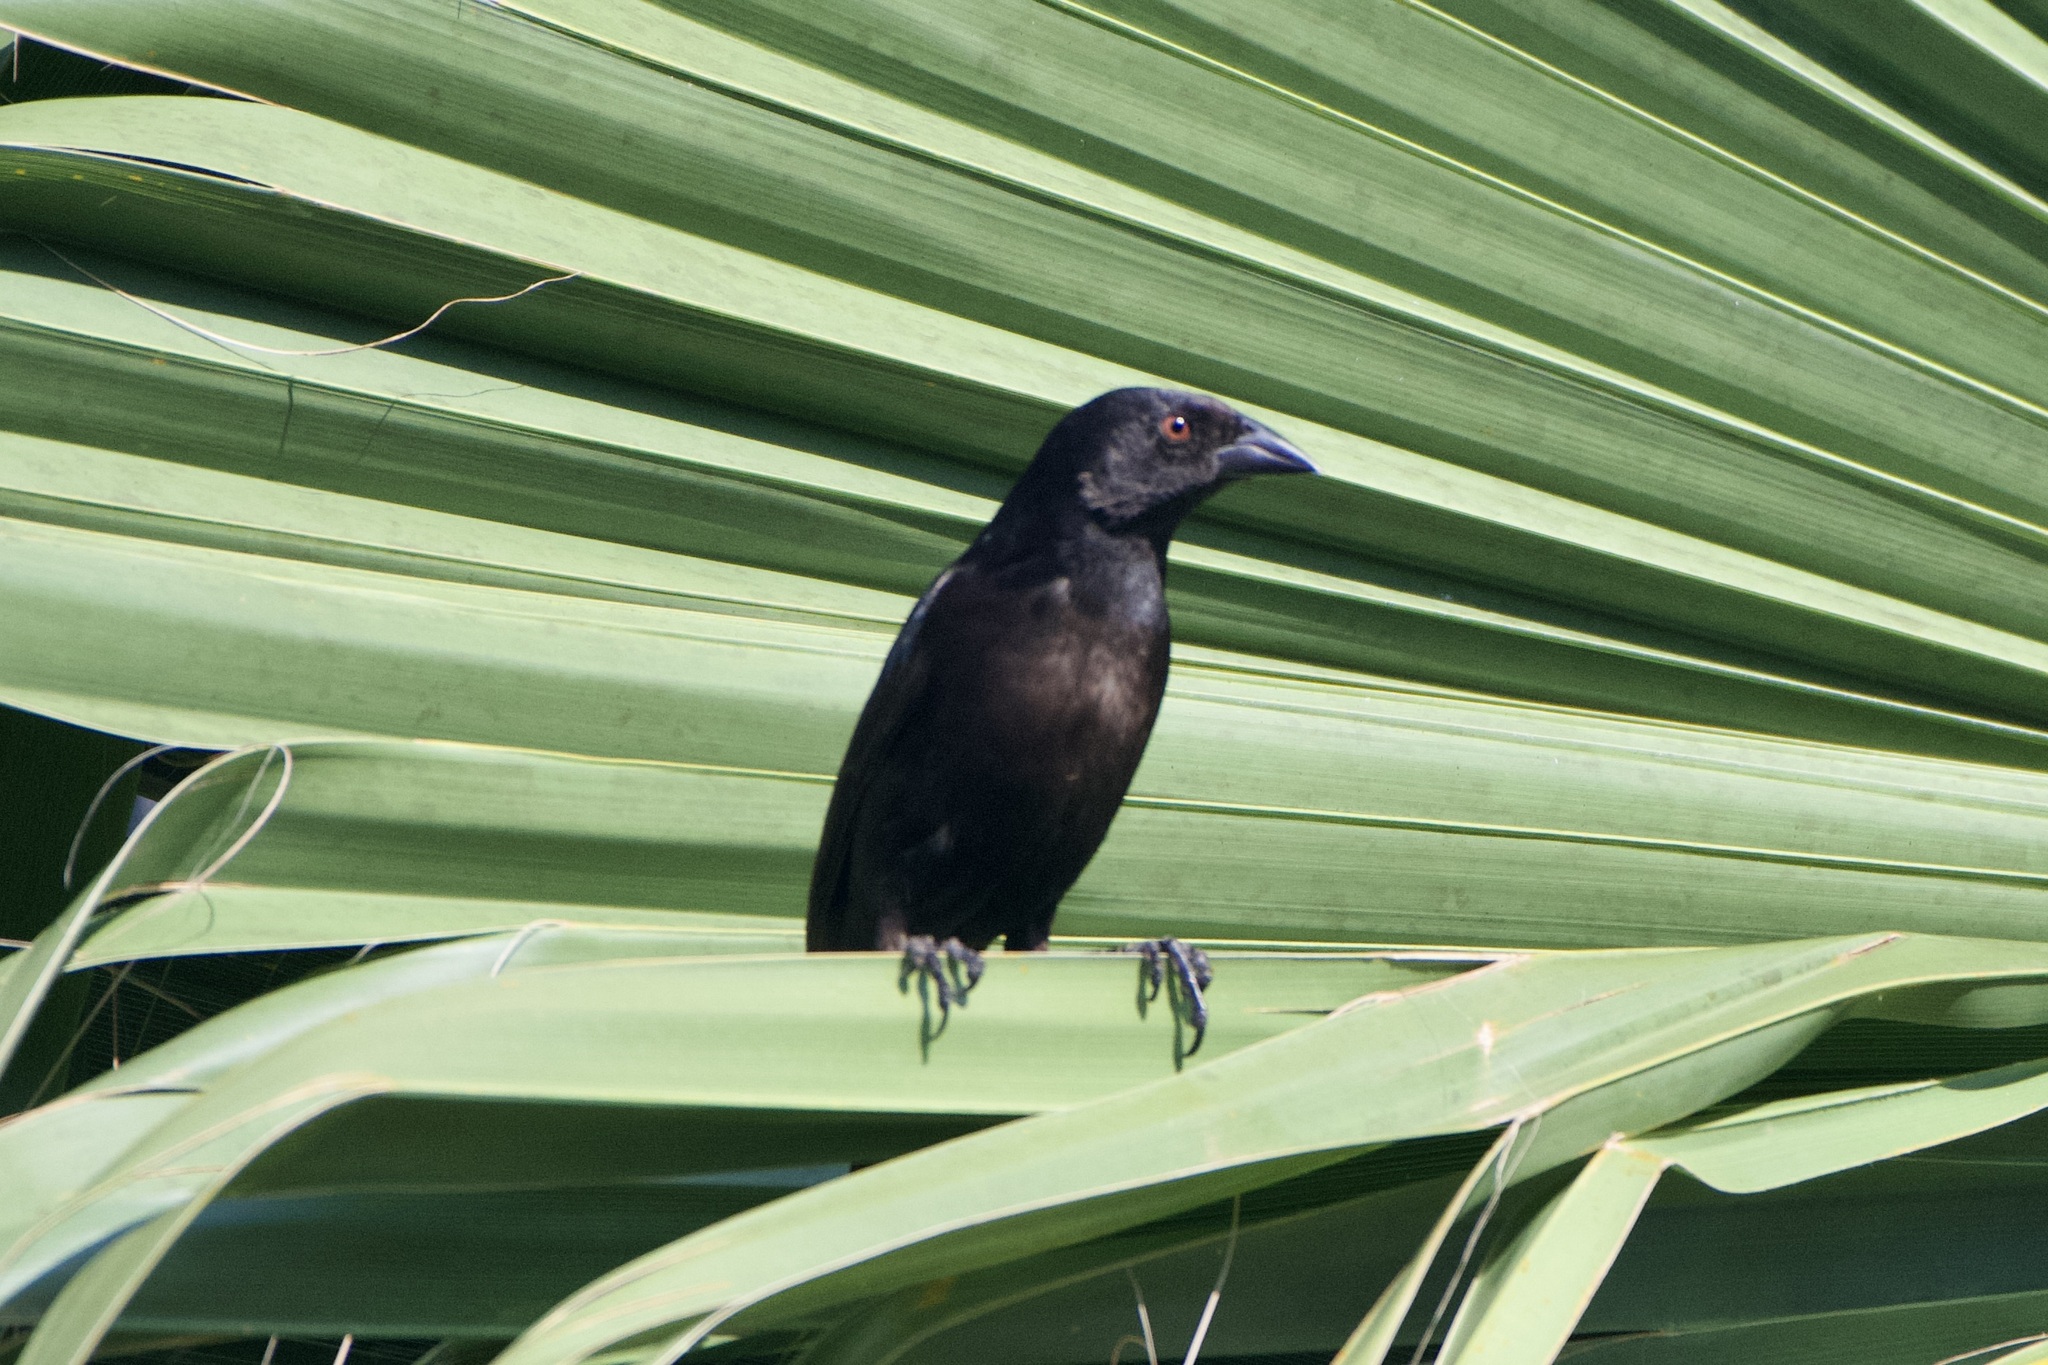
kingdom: Animalia
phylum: Chordata
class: Aves
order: Passeriformes
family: Icteridae
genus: Molothrus
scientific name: Molothrus aeneus
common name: Bronzed cowbird
